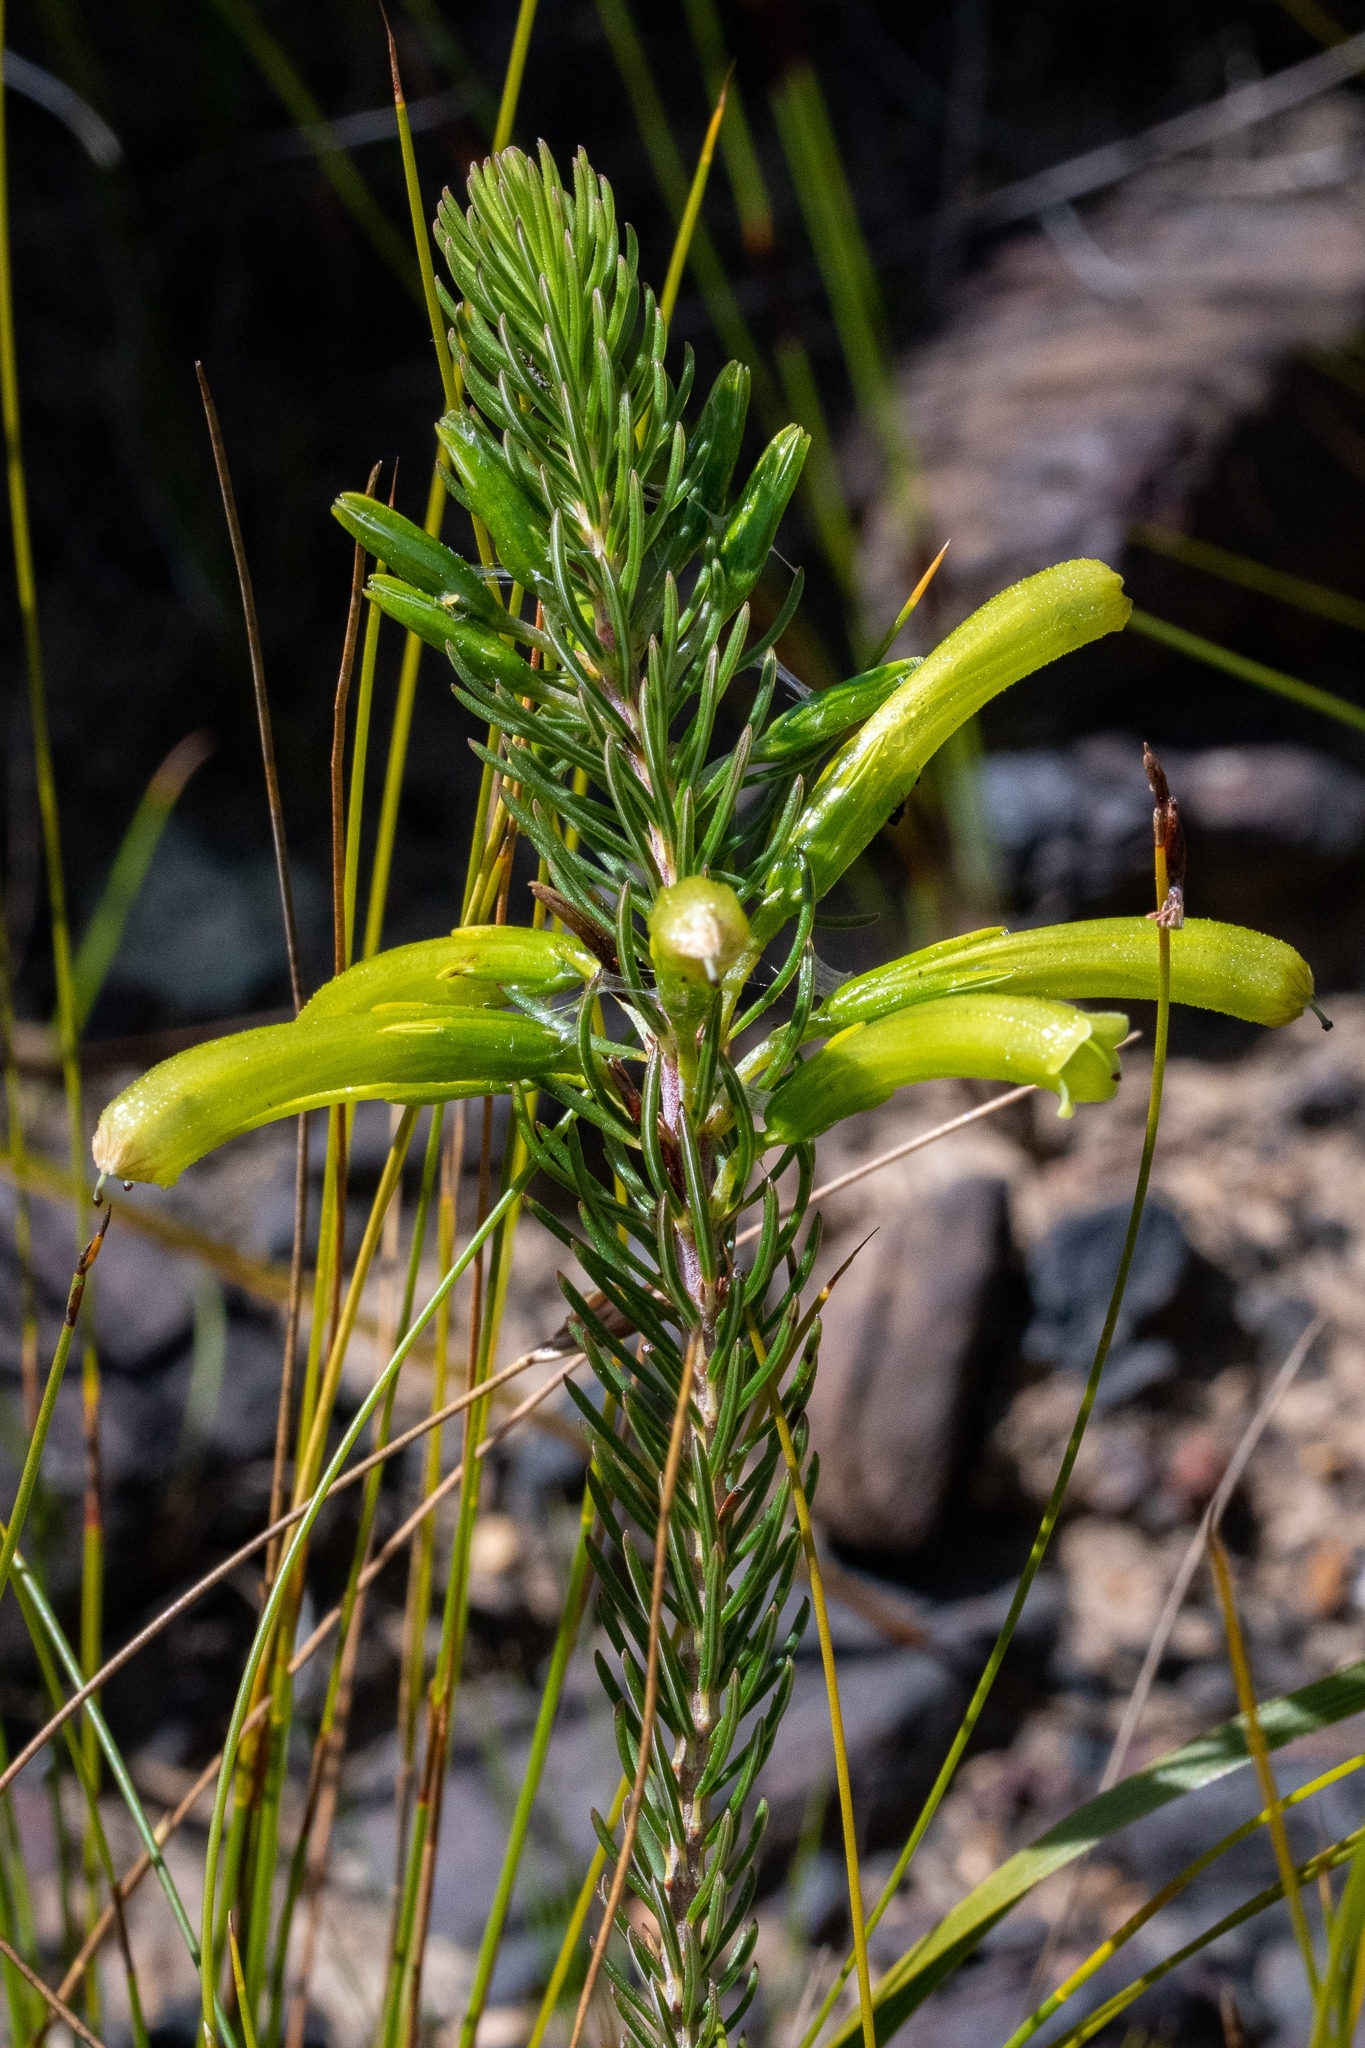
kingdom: Plantae
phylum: Tracheophyta
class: Magnoliopsida
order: Ericales
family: Ericaceae
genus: Erica
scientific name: Erica thomae
